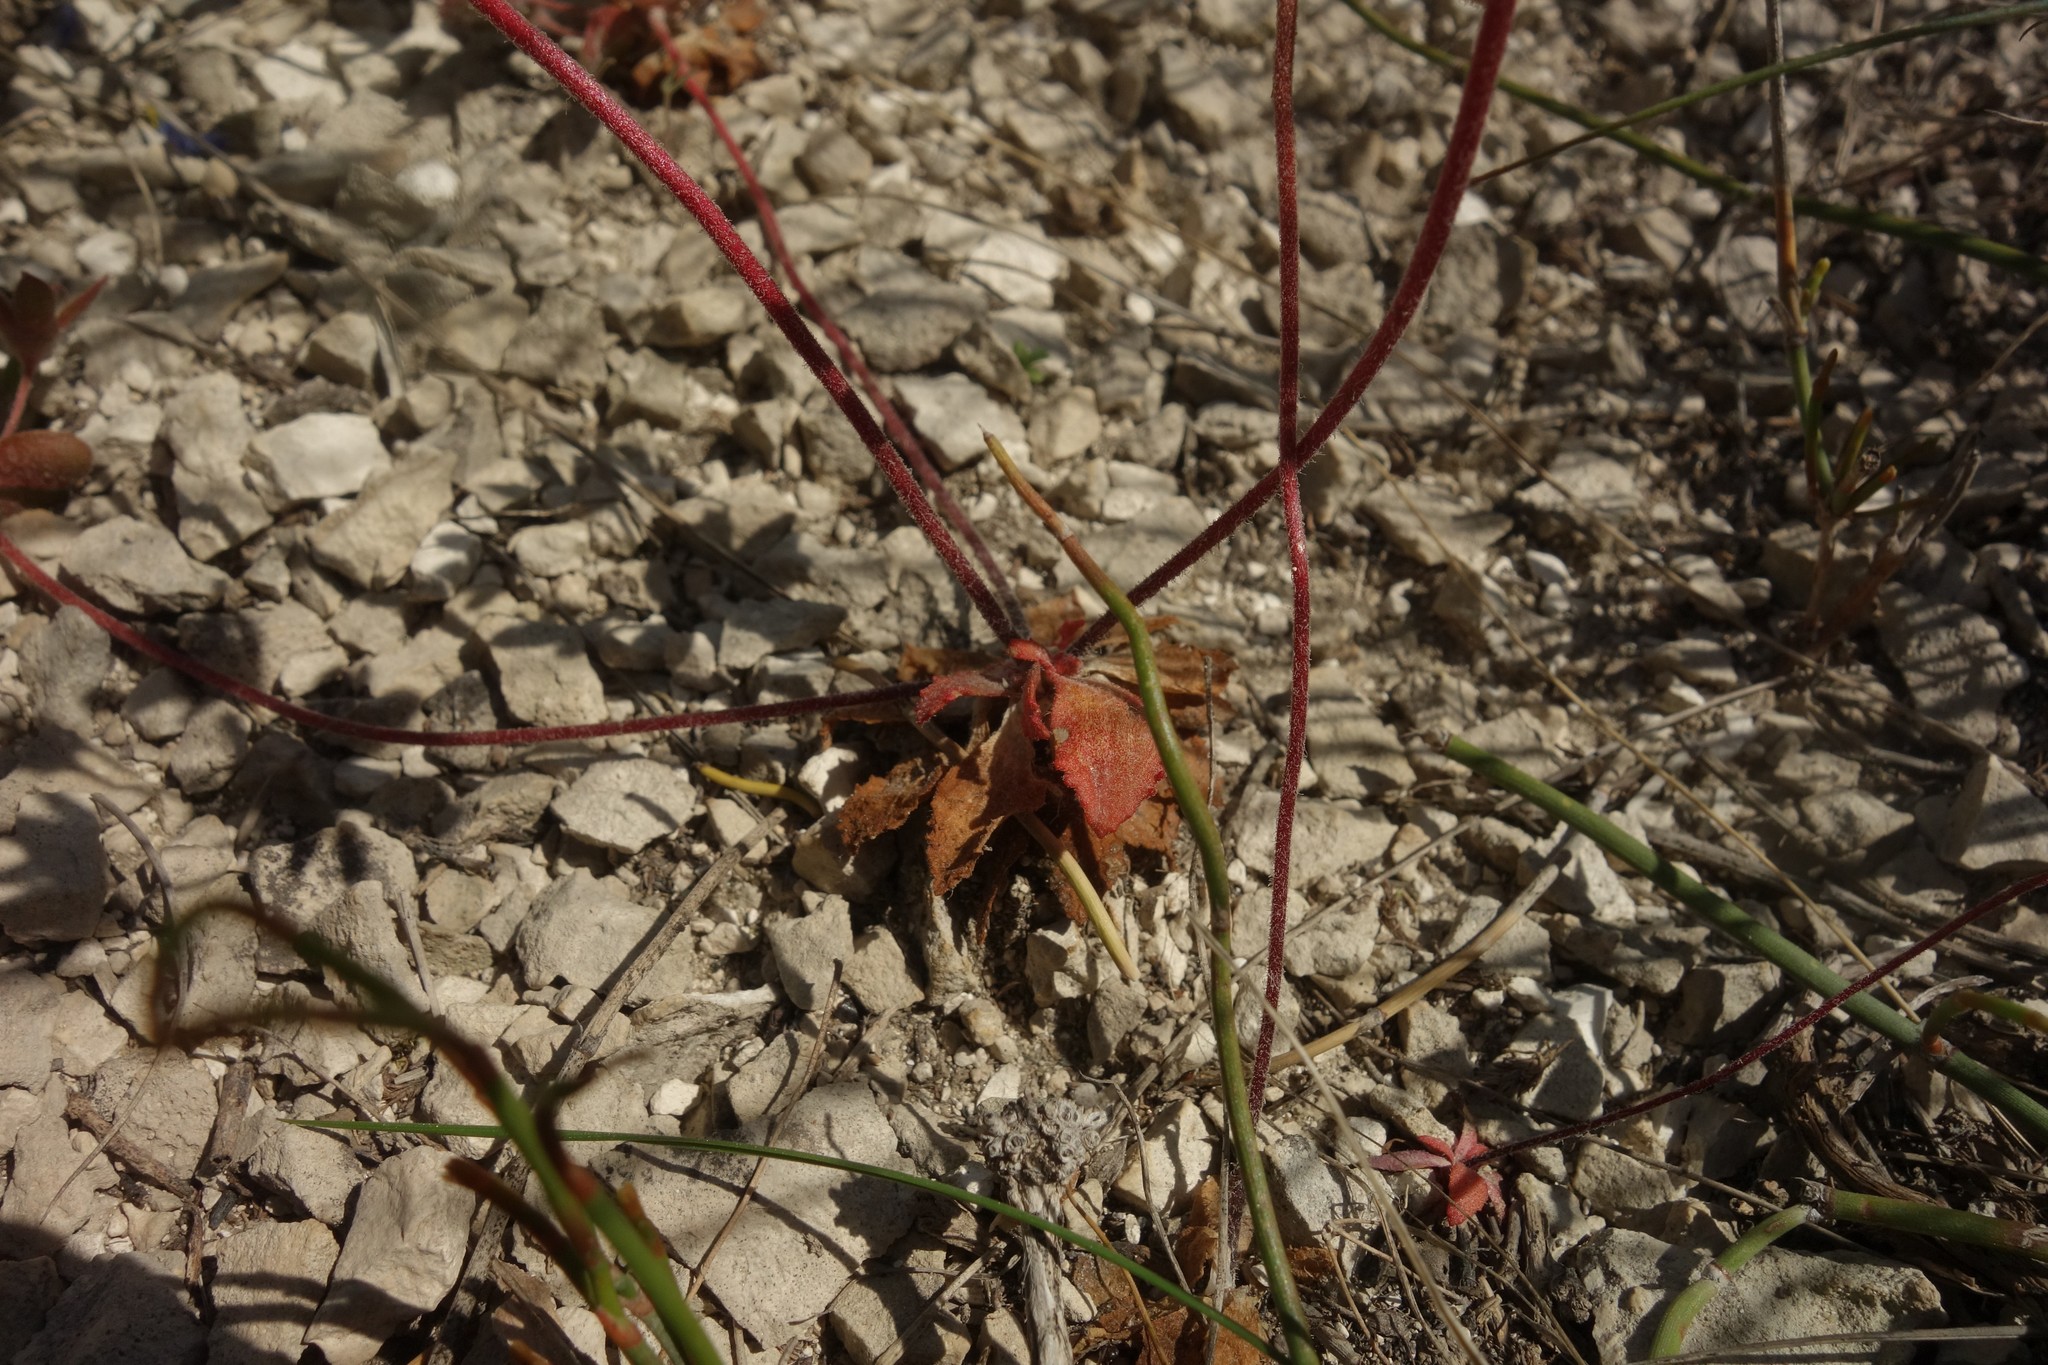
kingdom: Plantae
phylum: Tracheophyta
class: Magnoliopsida
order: Ericales
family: Primulaceae
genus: Androsace
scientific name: Androsace maxima
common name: Annual androsace
